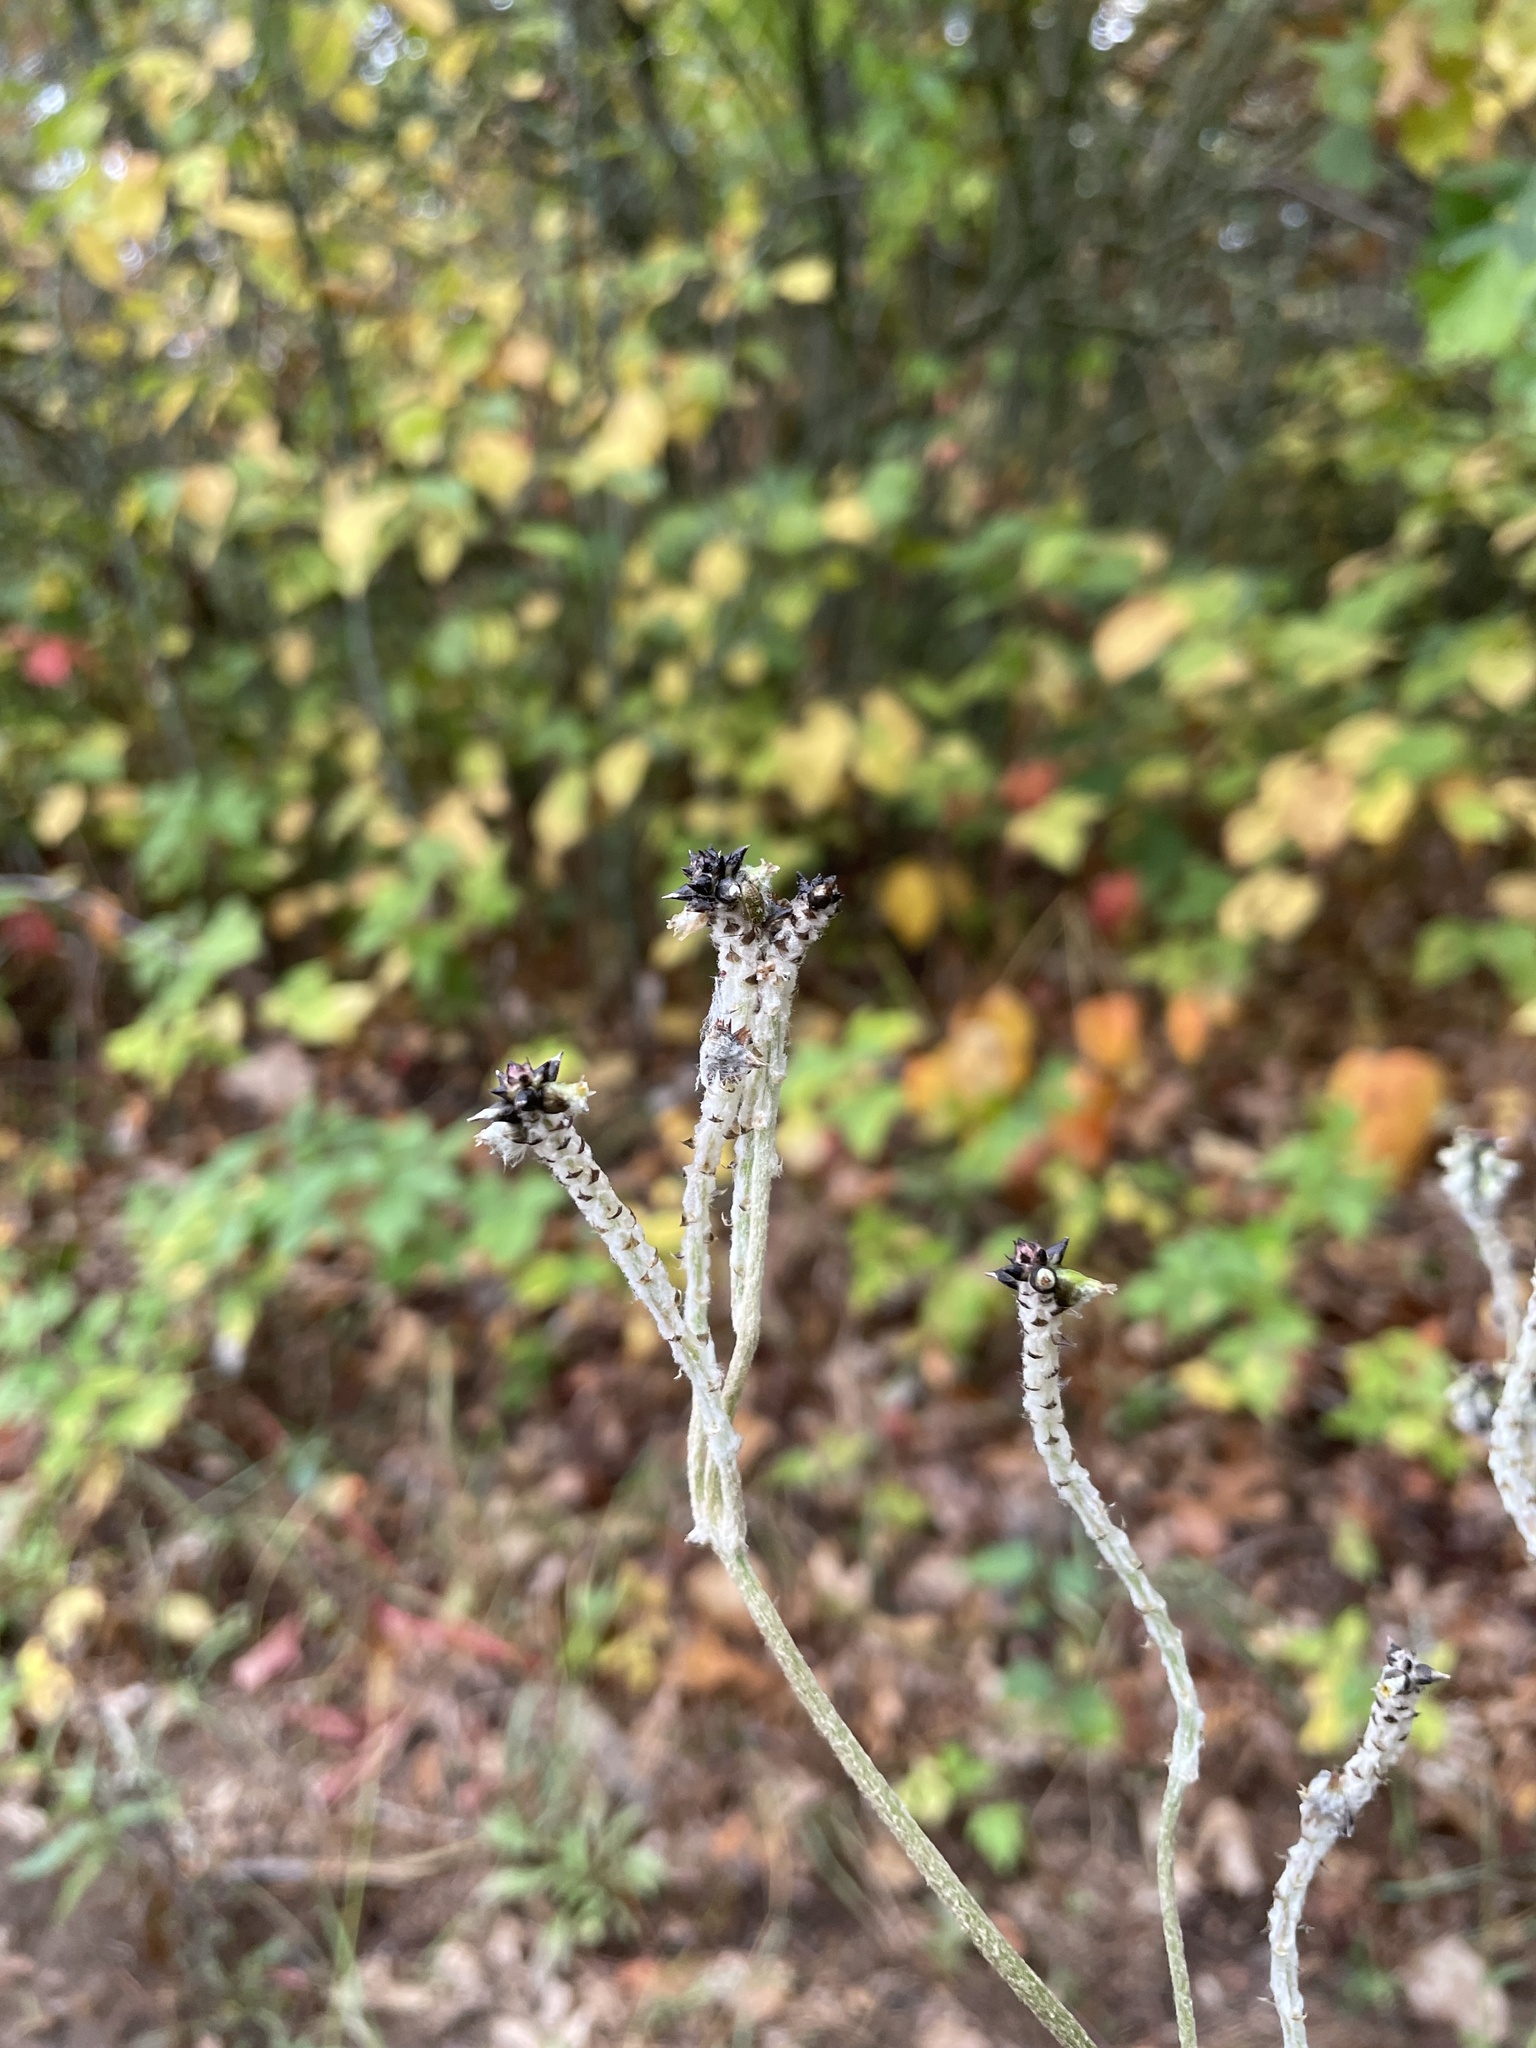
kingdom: Plantae
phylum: Tracheophyta
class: Magnoliopsida
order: Caryophyllales
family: Amaranthaceae
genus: Froelichia
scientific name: Froelichia floridana
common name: Florida snake-cotton
